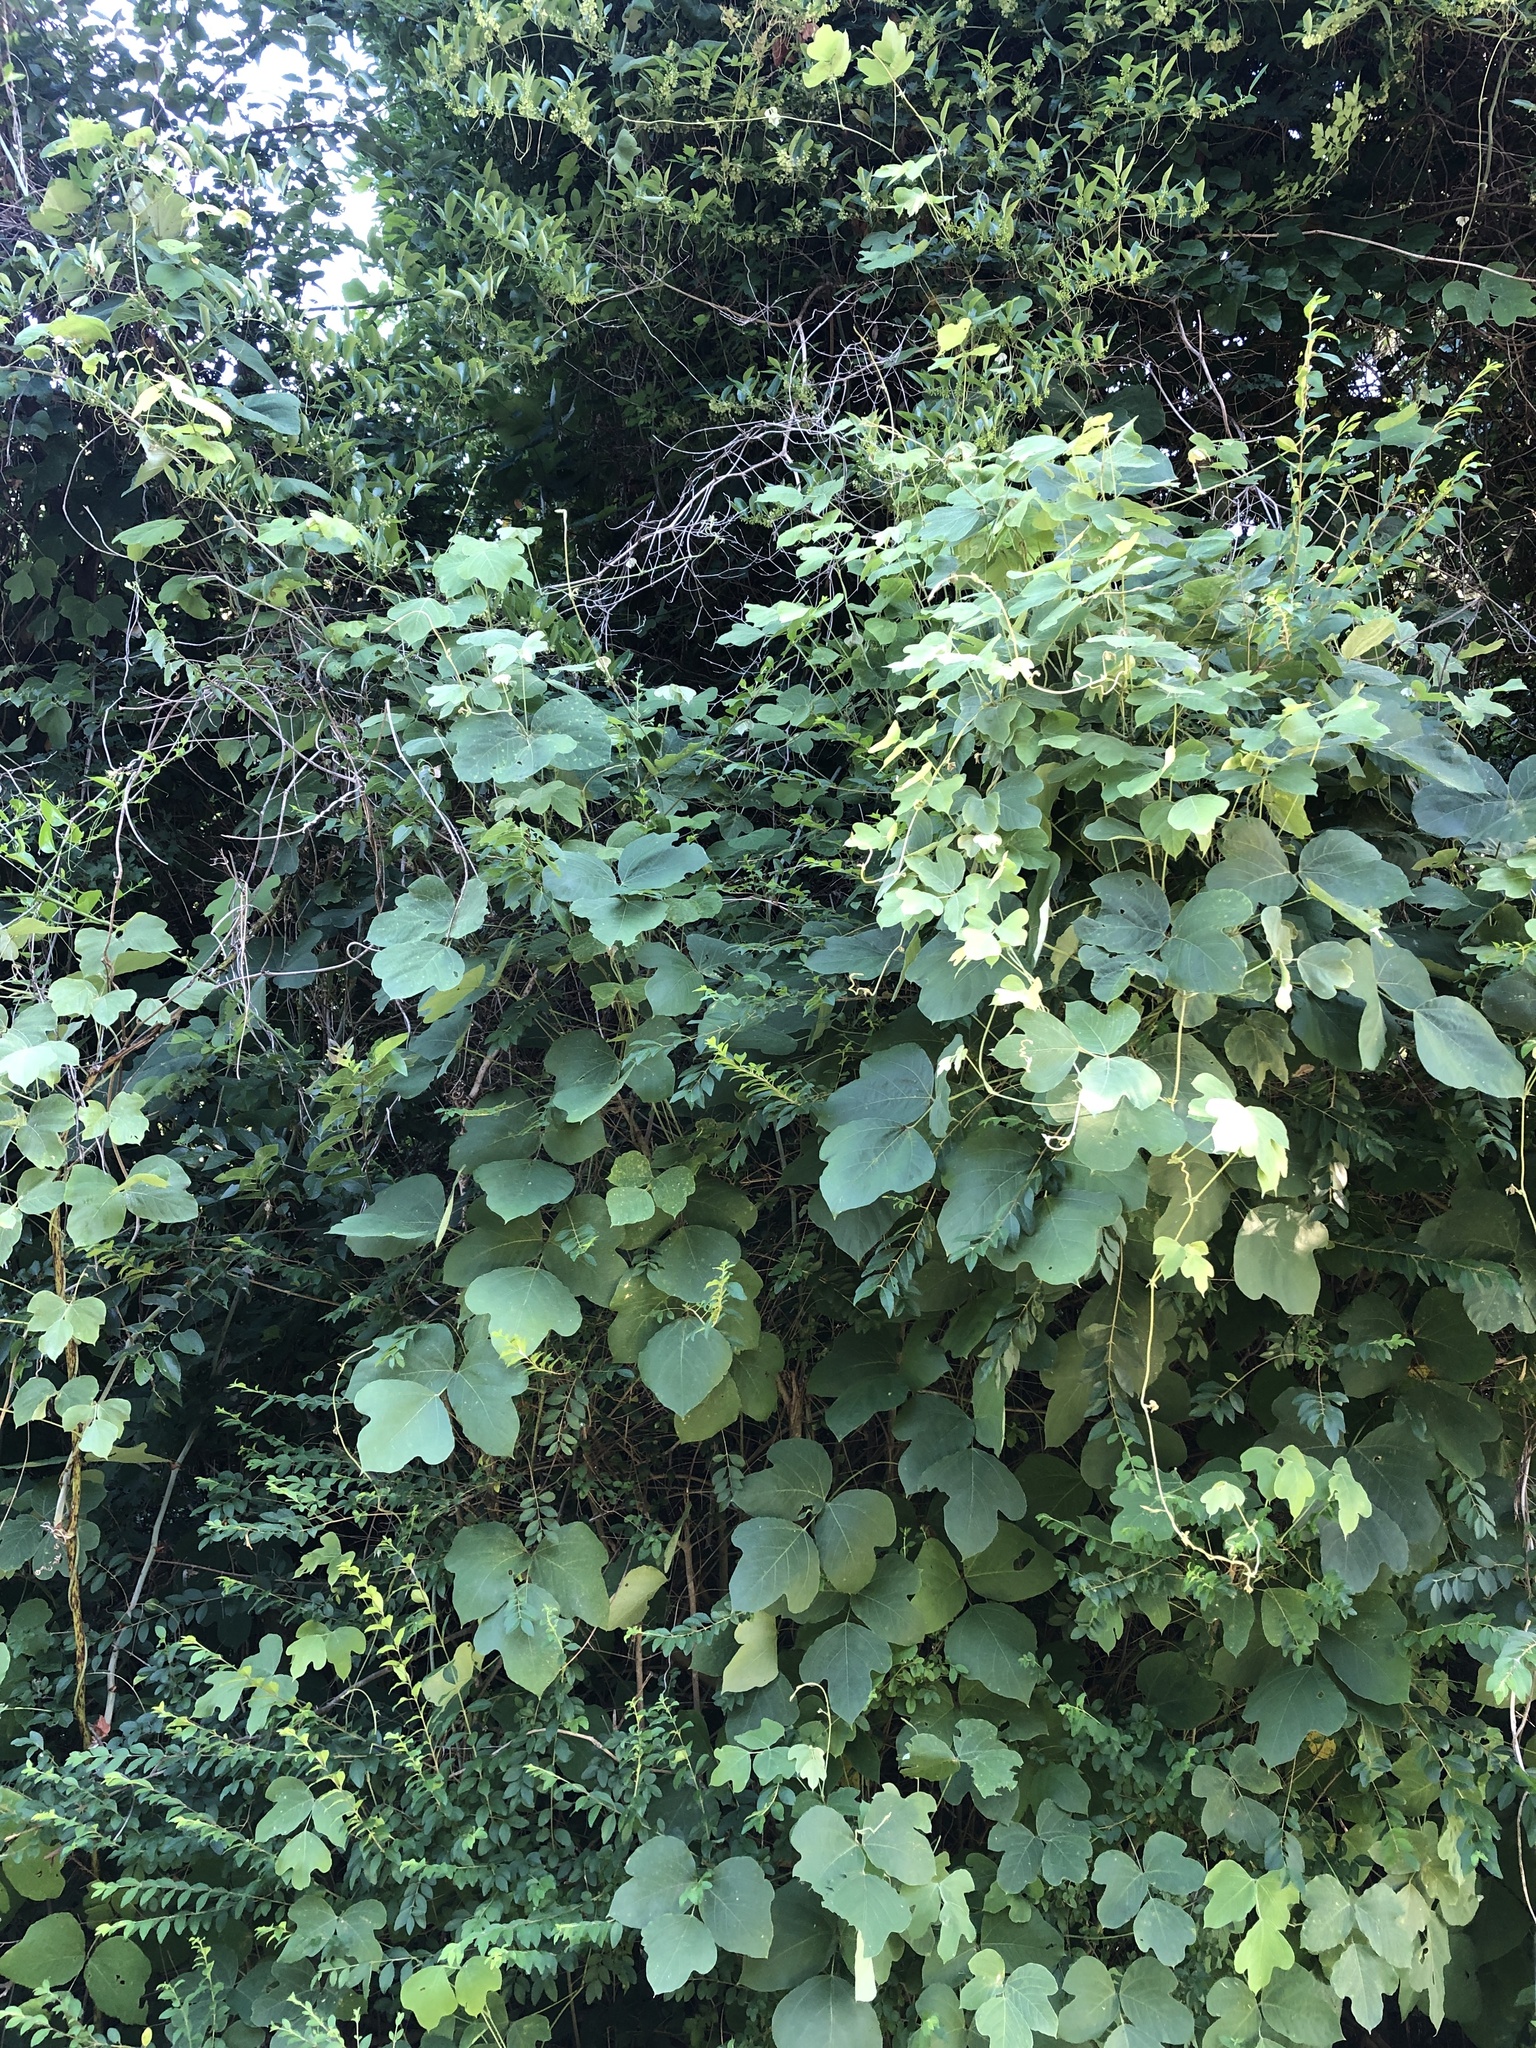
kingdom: Plantae
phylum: Tracheophyta
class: Magnoliopsida
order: Fabales
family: Fabaceae
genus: Pueraria
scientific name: Pueraria montana
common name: Kudzu
